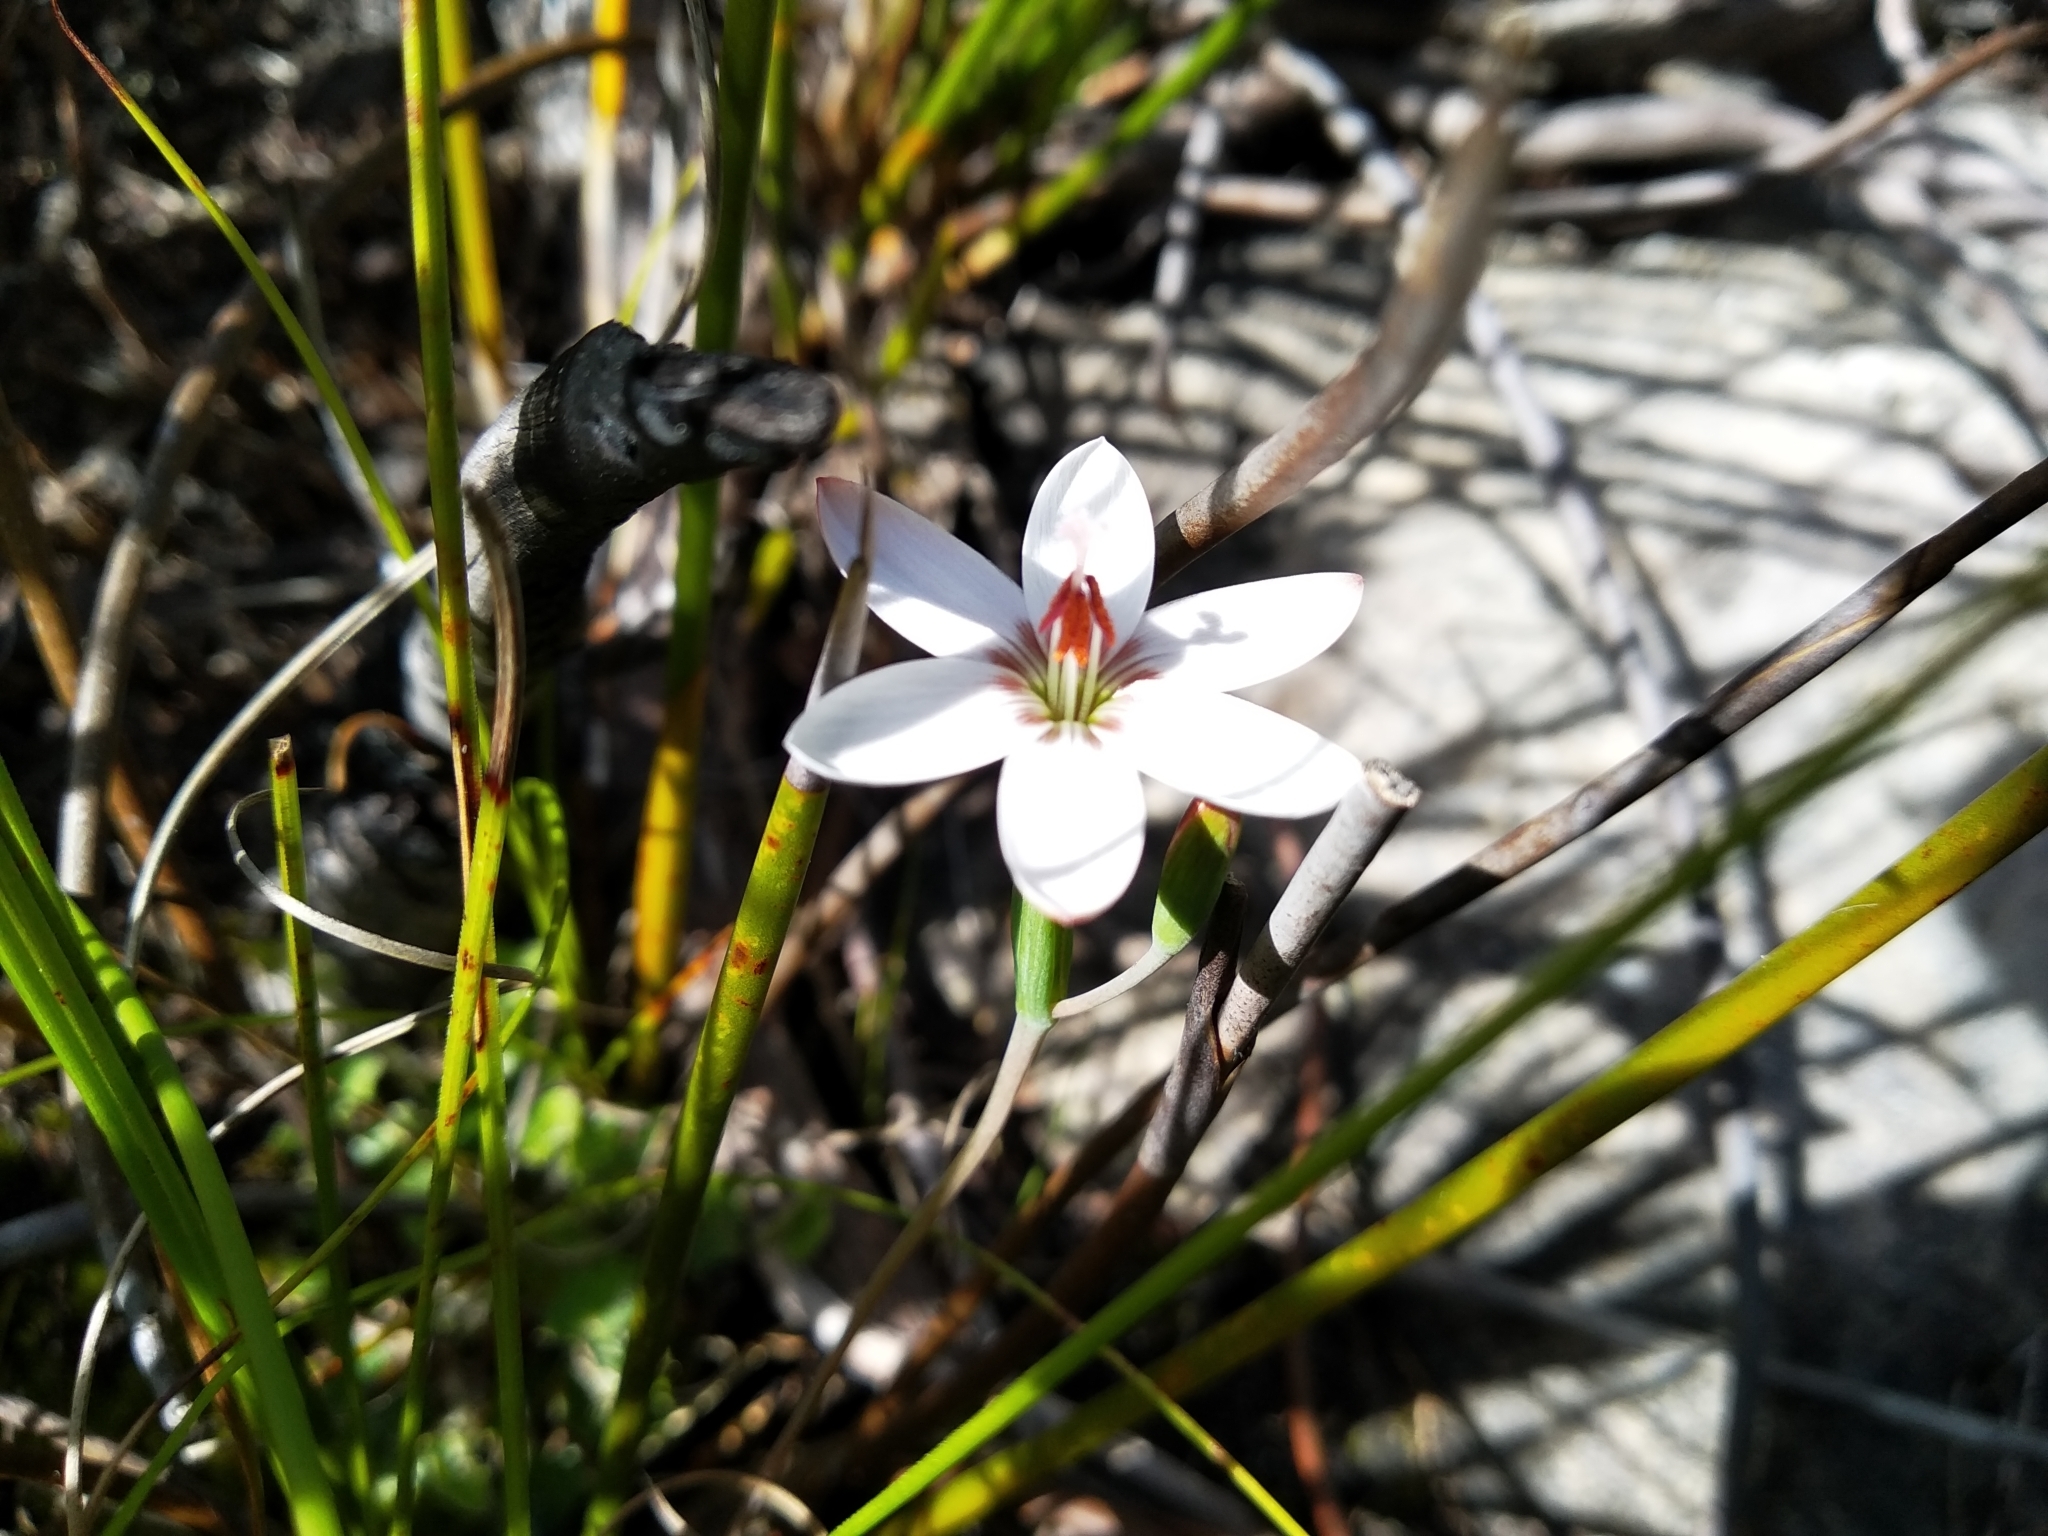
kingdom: Plantae
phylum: Tracheophyta
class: Liliopsida
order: Asparagales
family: Iridaceae
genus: Geissorhiza
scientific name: Geissorhiza ovata
